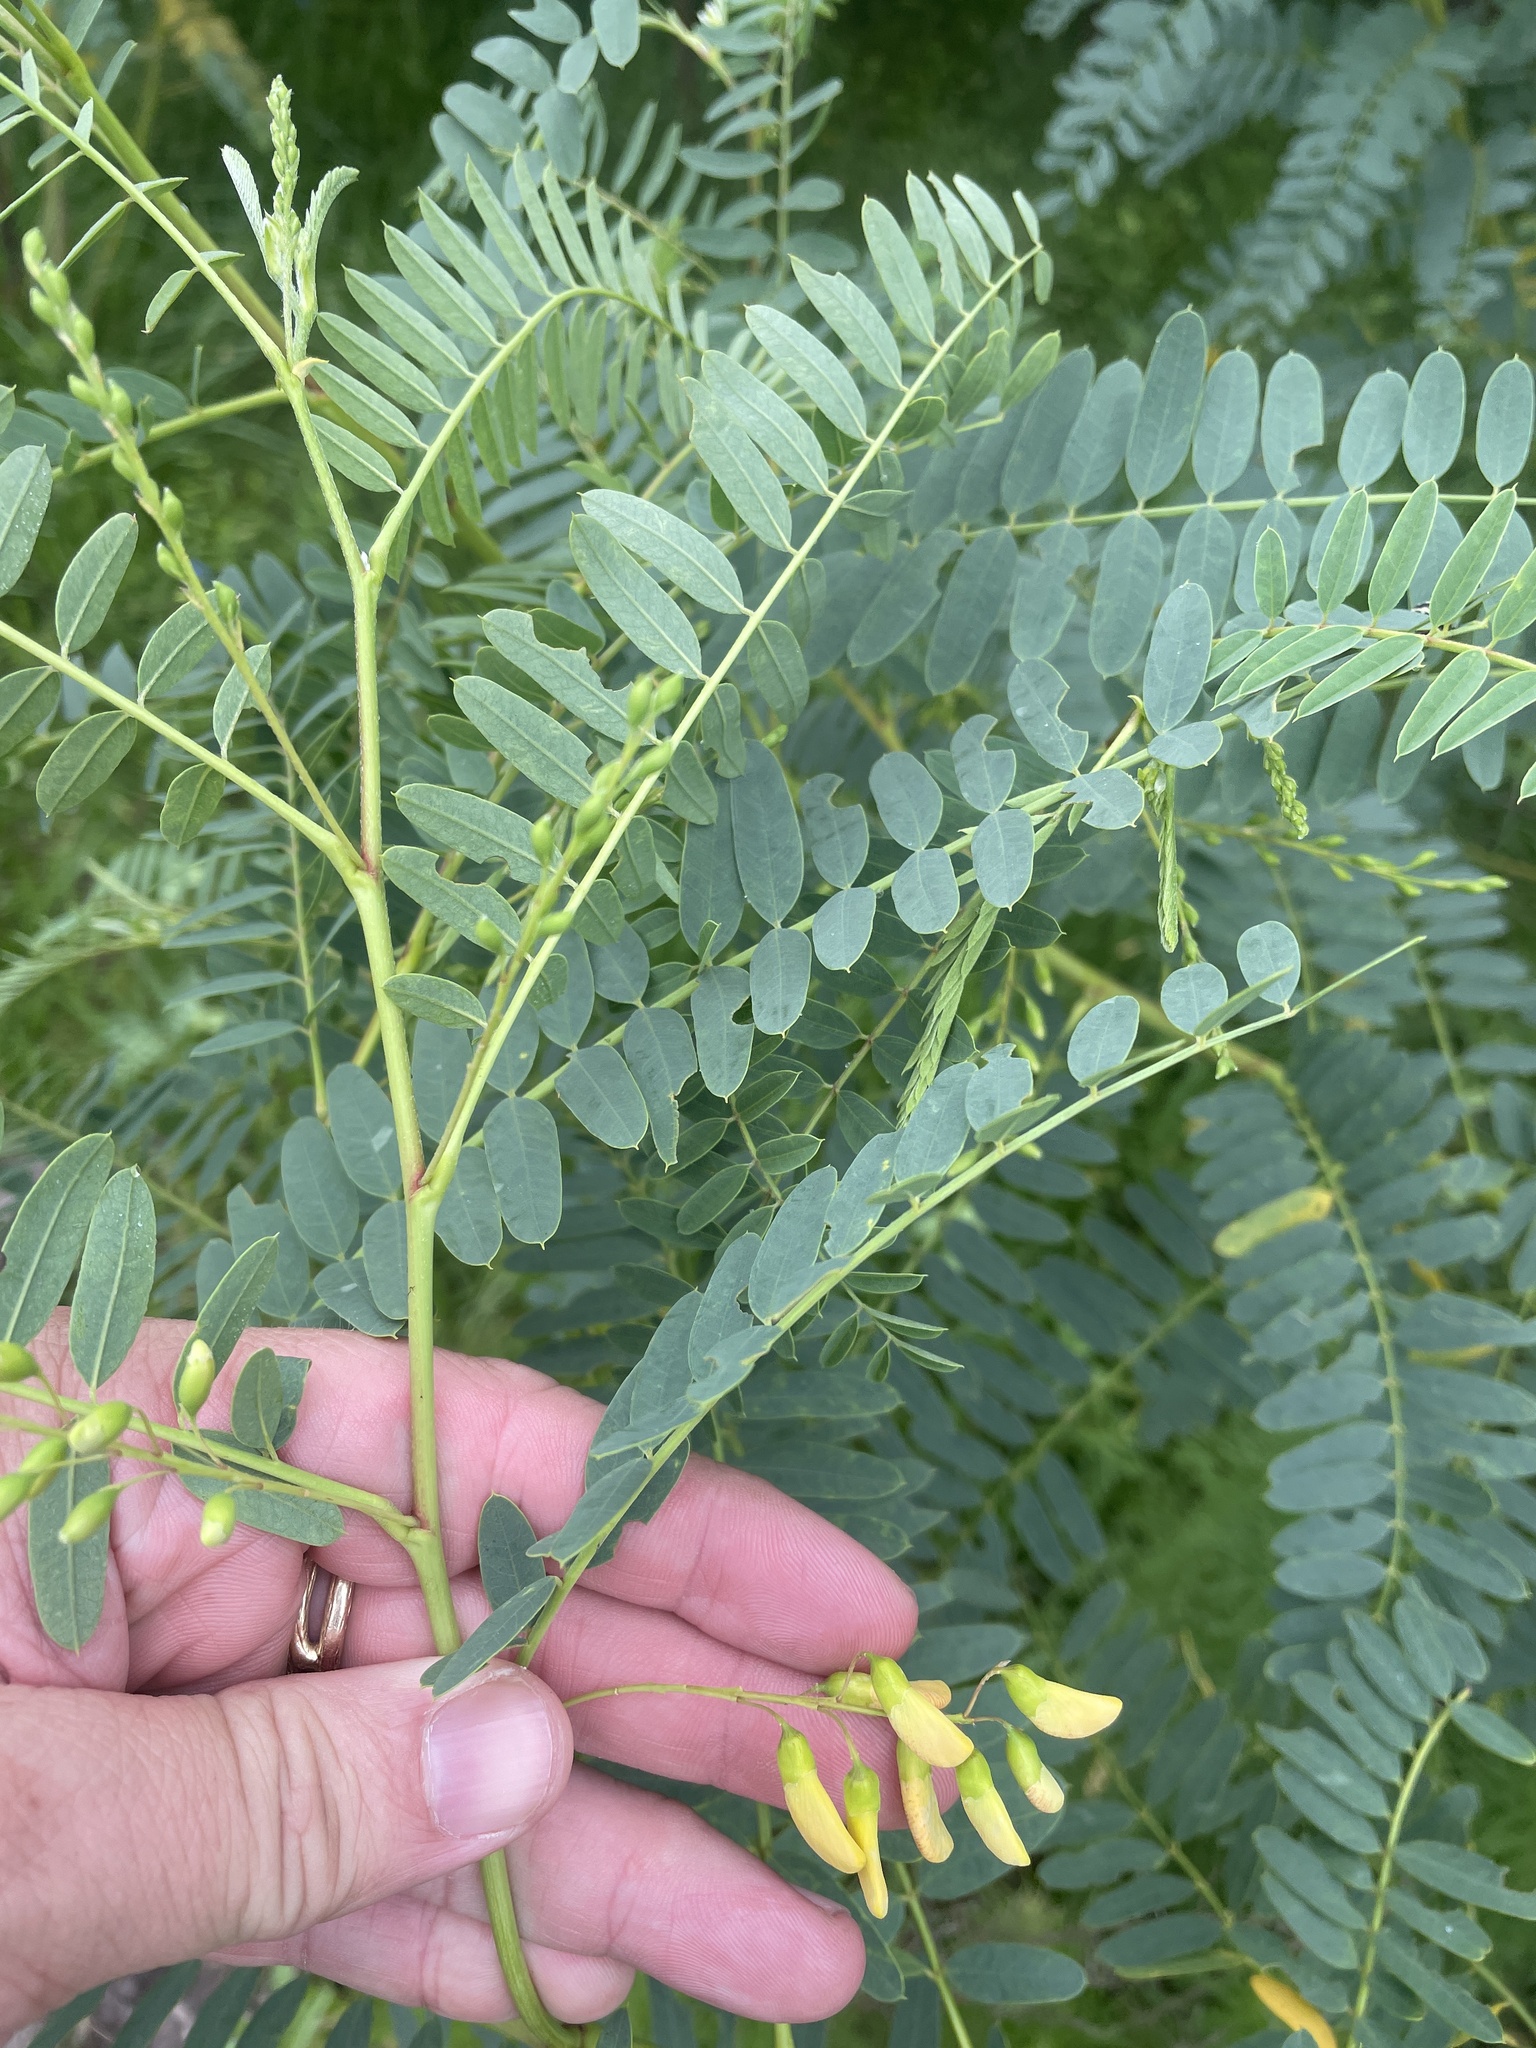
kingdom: Plantae
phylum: Tracheophyta
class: Magnoliopsida
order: Fabales
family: Fabaceae
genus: Sesbania
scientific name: Sesbania drummondii
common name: Poison-bean
